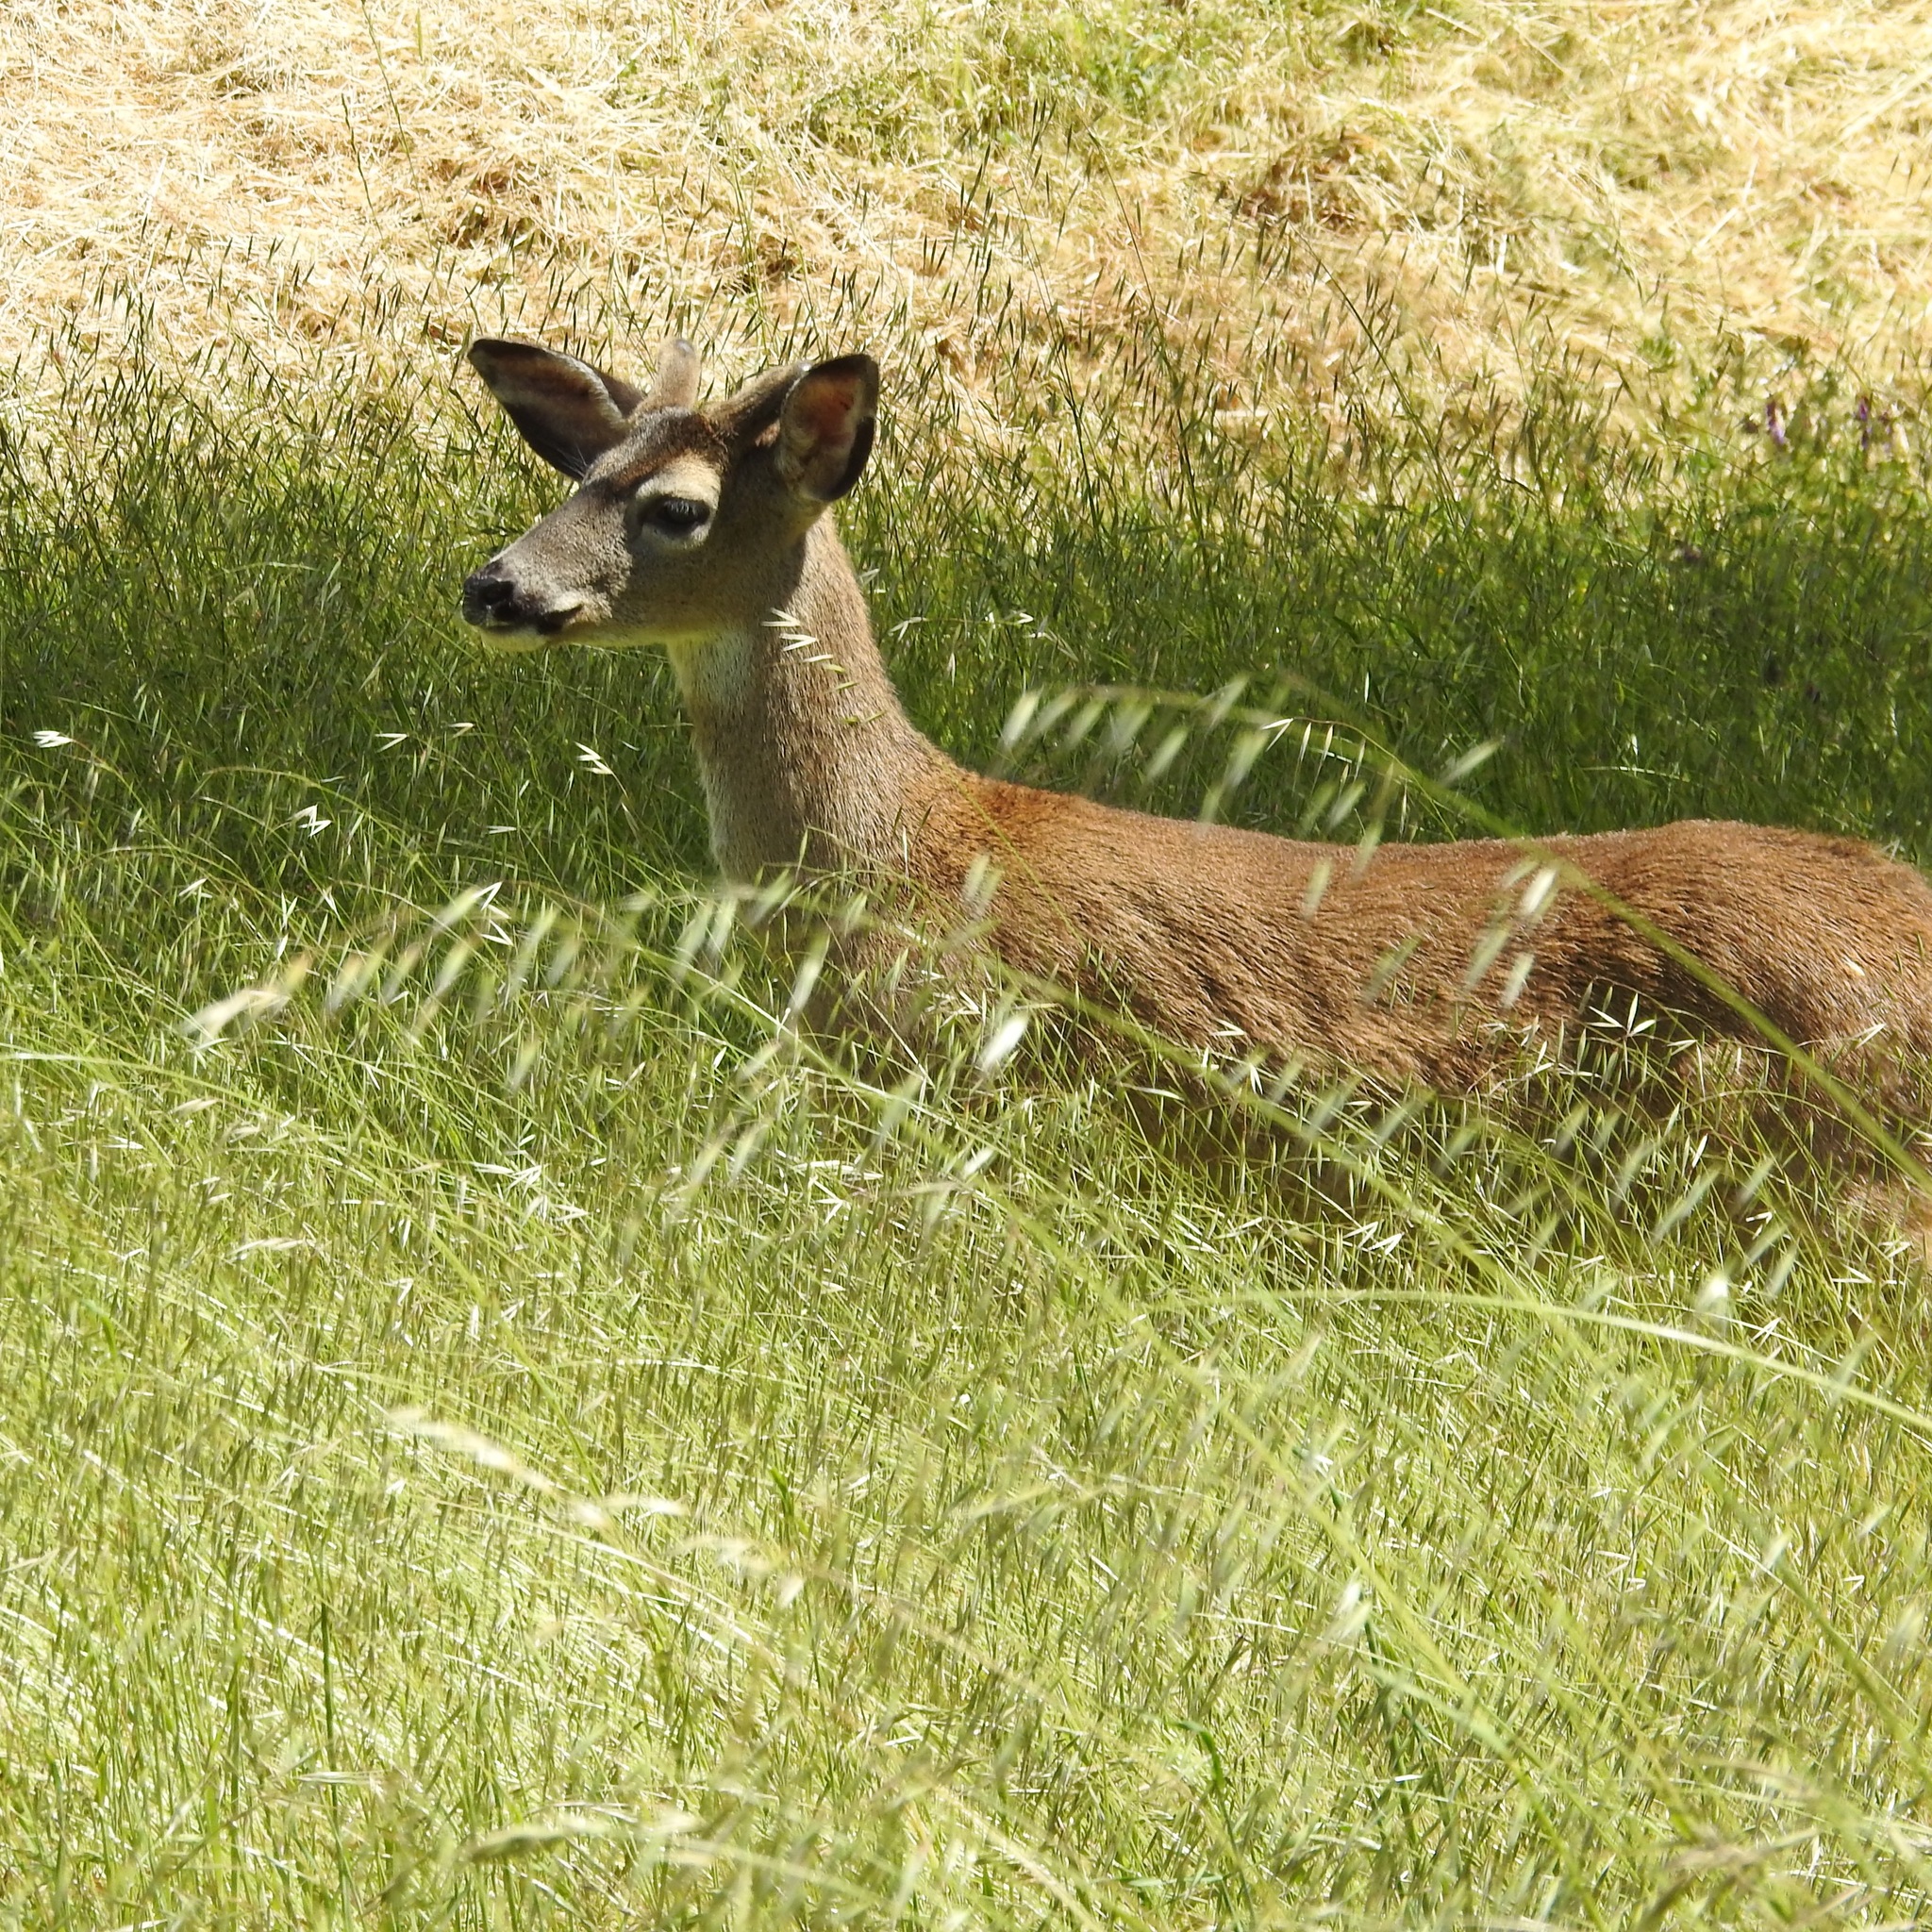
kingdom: Animalia
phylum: Chordata
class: Mammalia
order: Artiodactyla
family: Cervidae
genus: Odocoileus
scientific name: Odocoileus hemionus
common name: Mule deer
